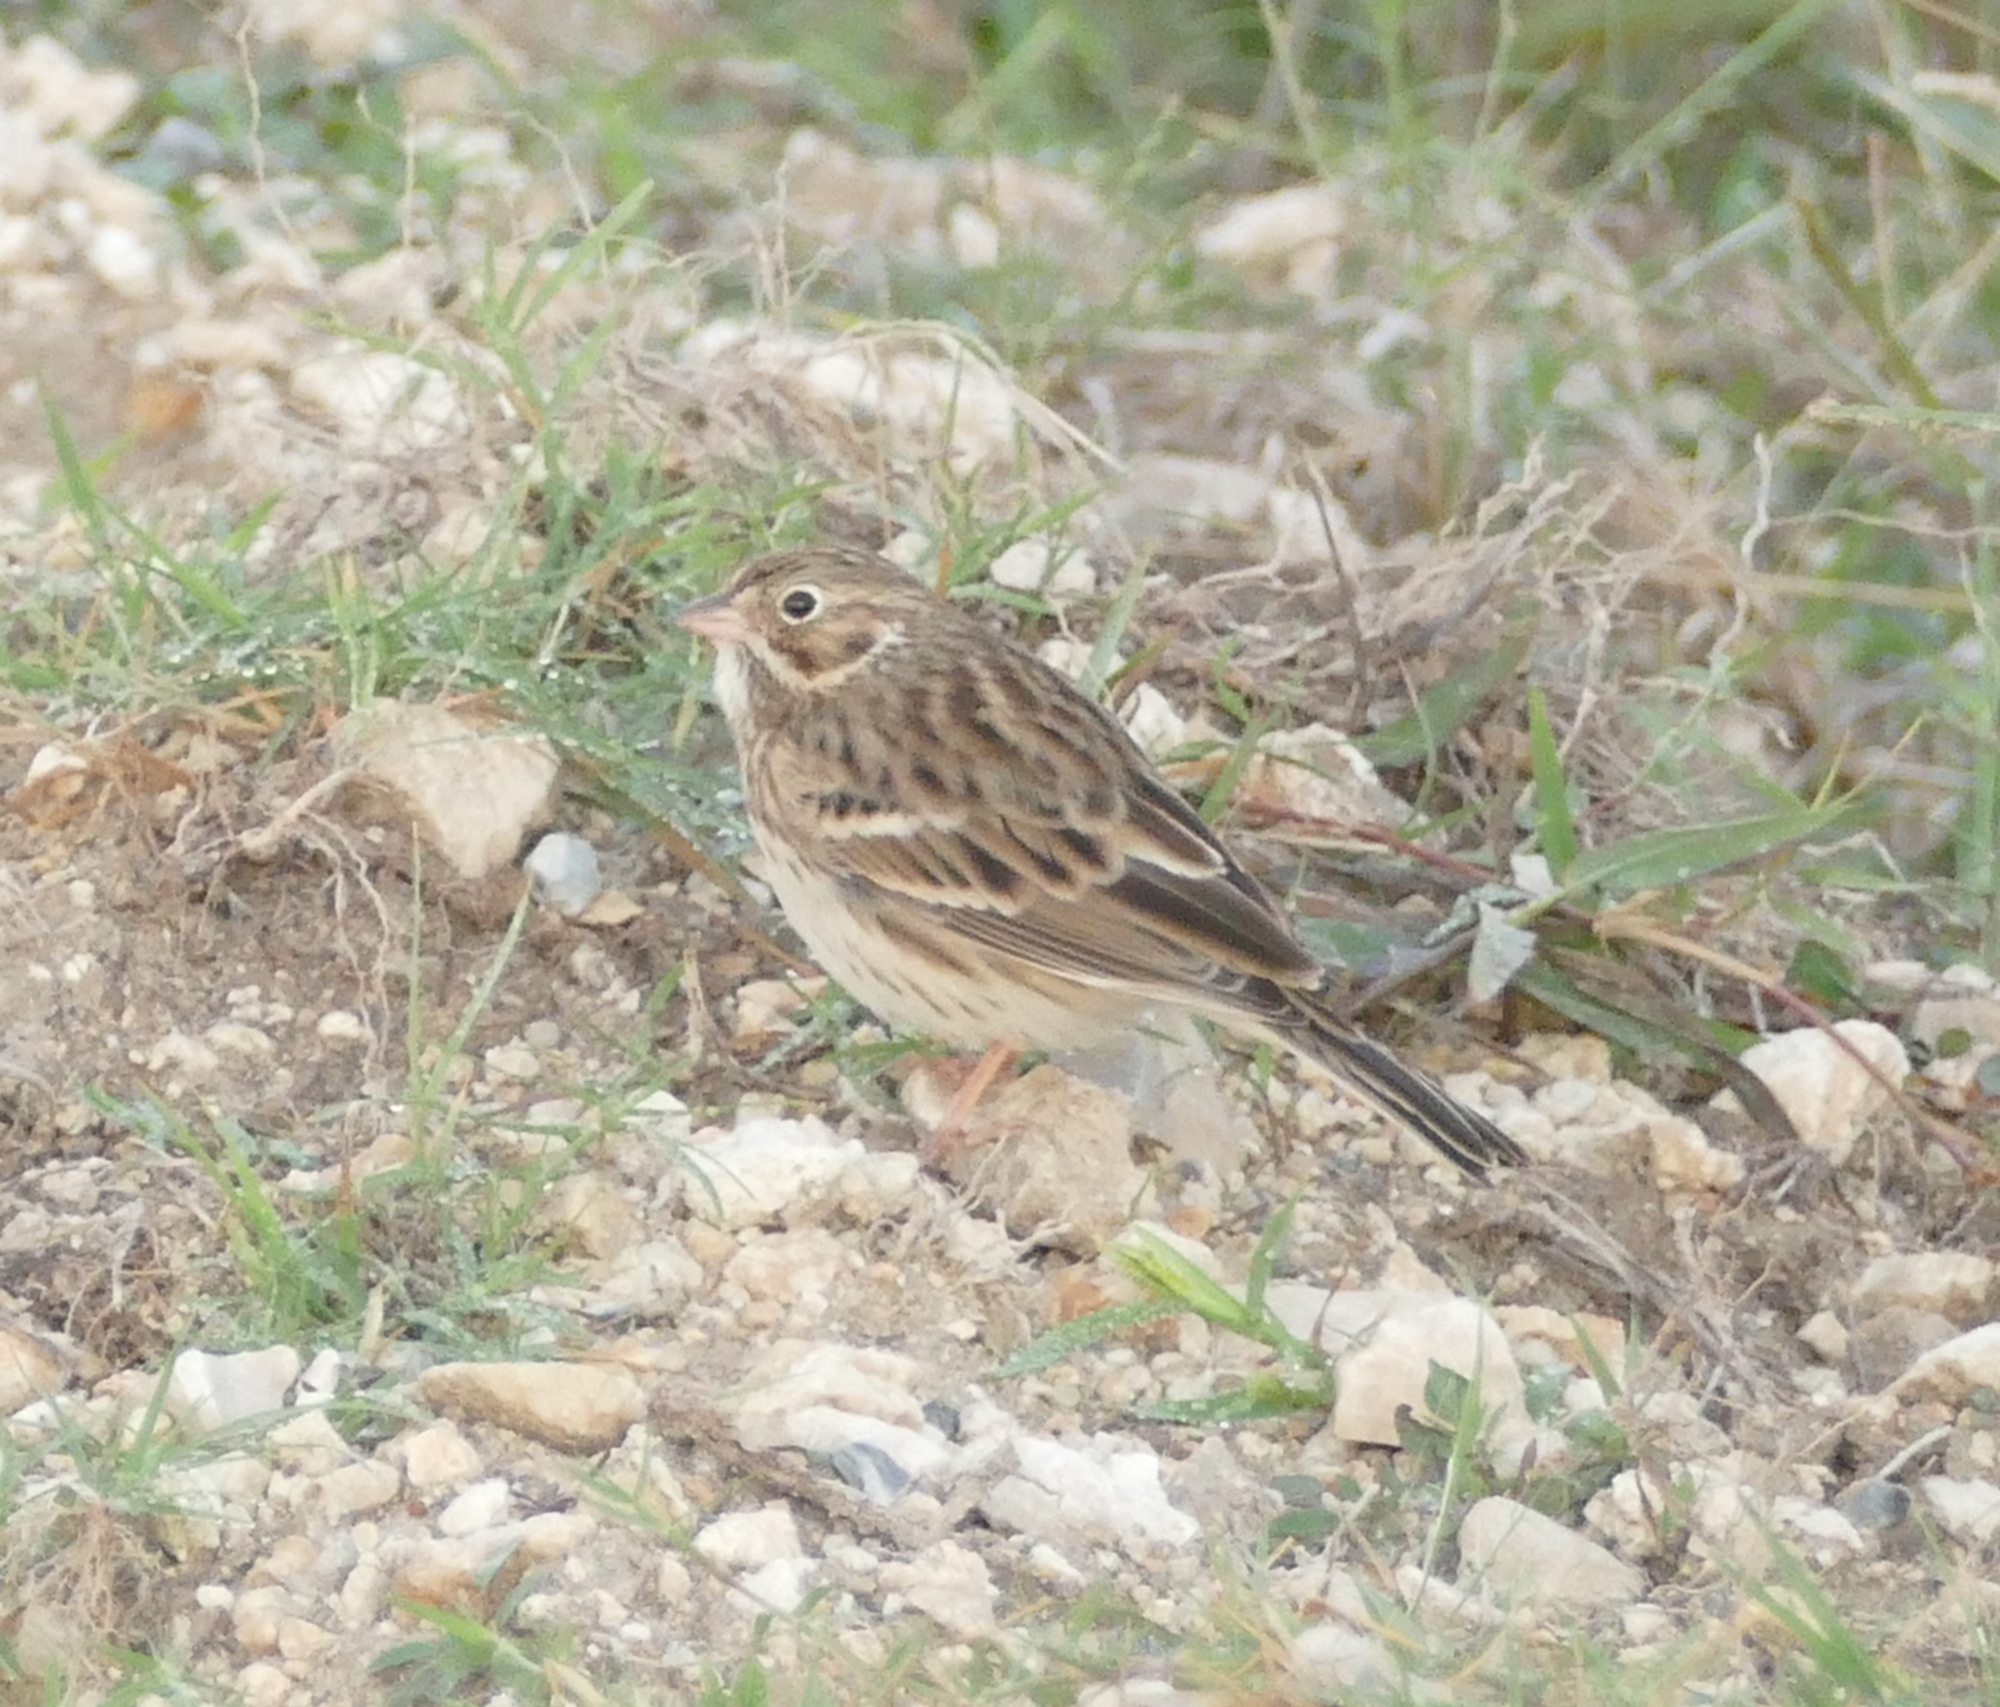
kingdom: Animalia
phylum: Chordata
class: Aves
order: Passeriformes
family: Passerellidae
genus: Pooecetes
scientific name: Pooecetes gramineus
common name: Vesper sparrow
